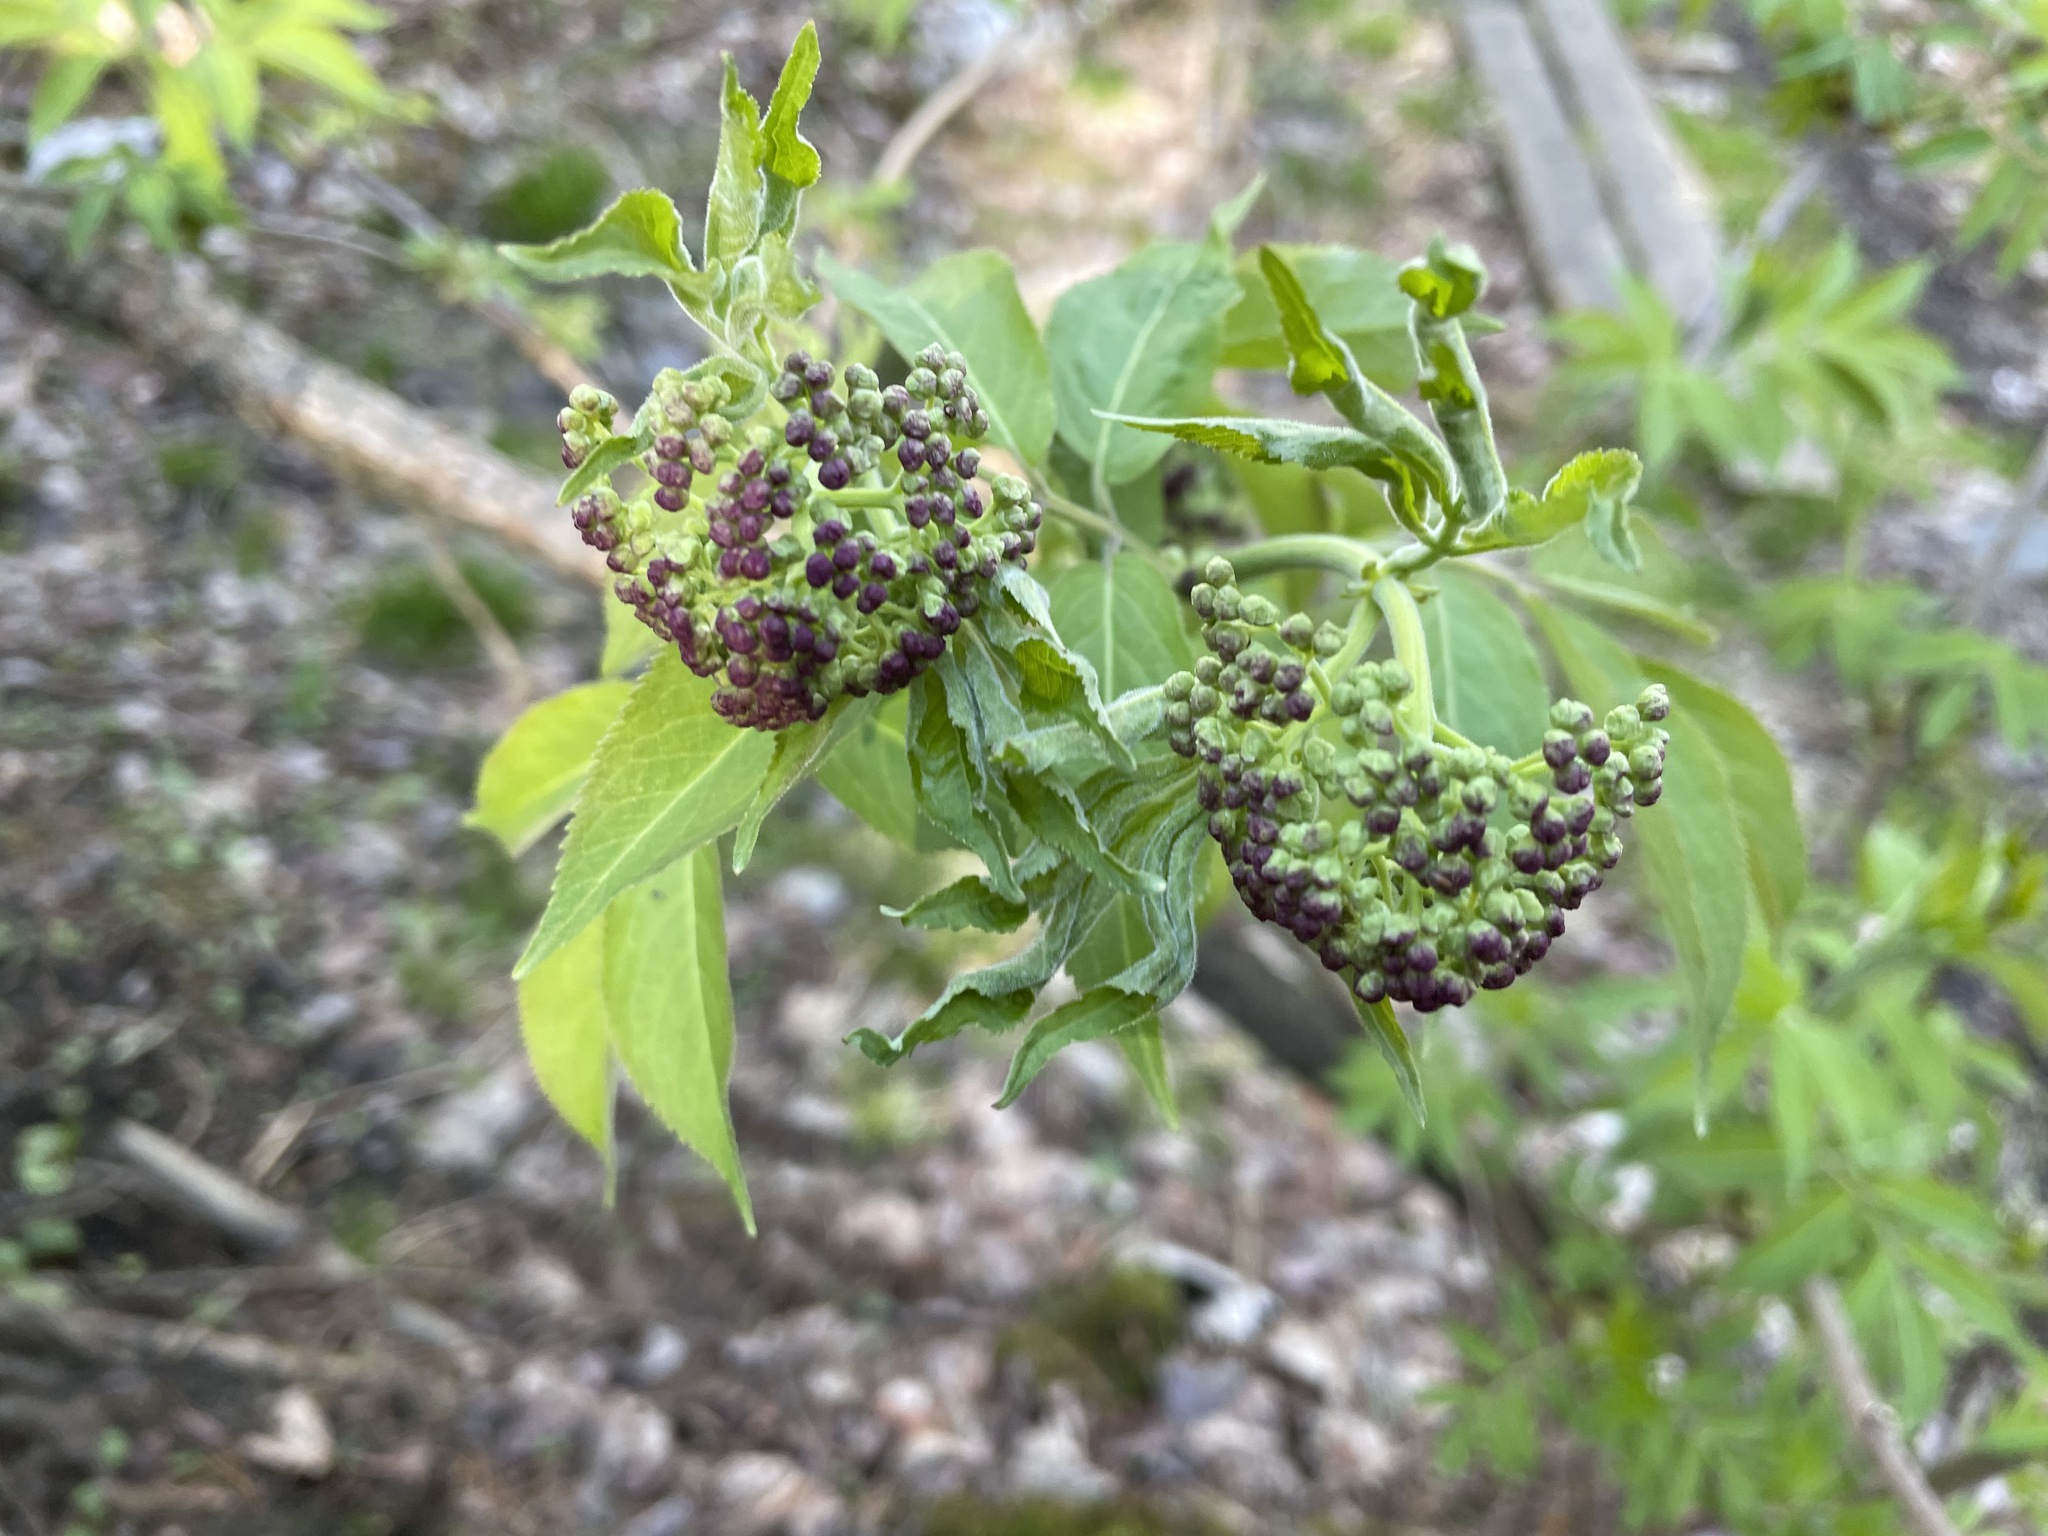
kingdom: Plantae
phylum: Tracheophyta
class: Magnoliopsida
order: Dipsacales
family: Viburnaceae
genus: Sambucus
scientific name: Sambucus racemosa
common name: Red-berried elder
